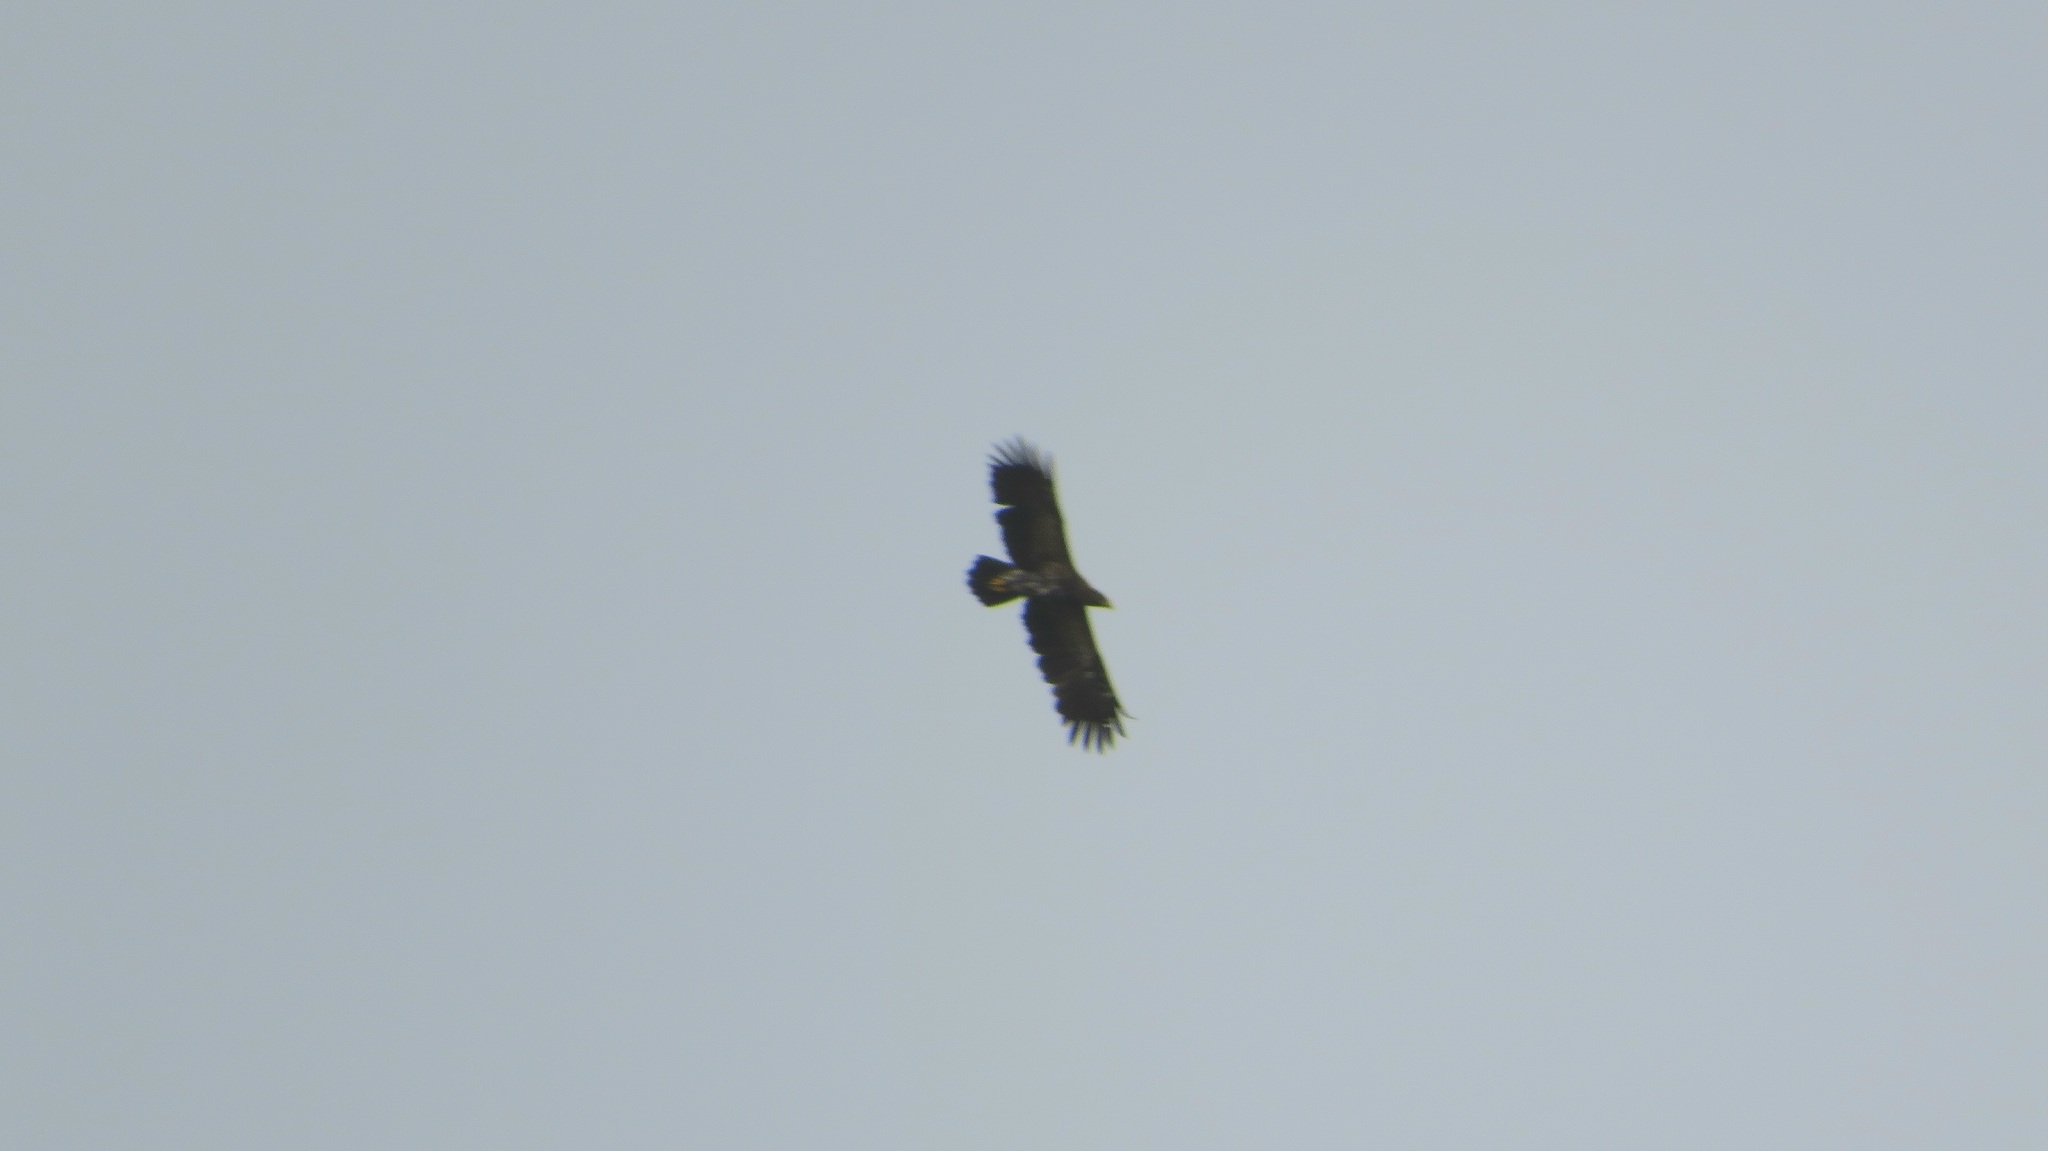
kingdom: Animalia
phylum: Chordata
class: Aves
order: Accipitriformes
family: Accipitridae
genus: Aquila
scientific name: Aquila pomarina
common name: Lesser spotted eagle
